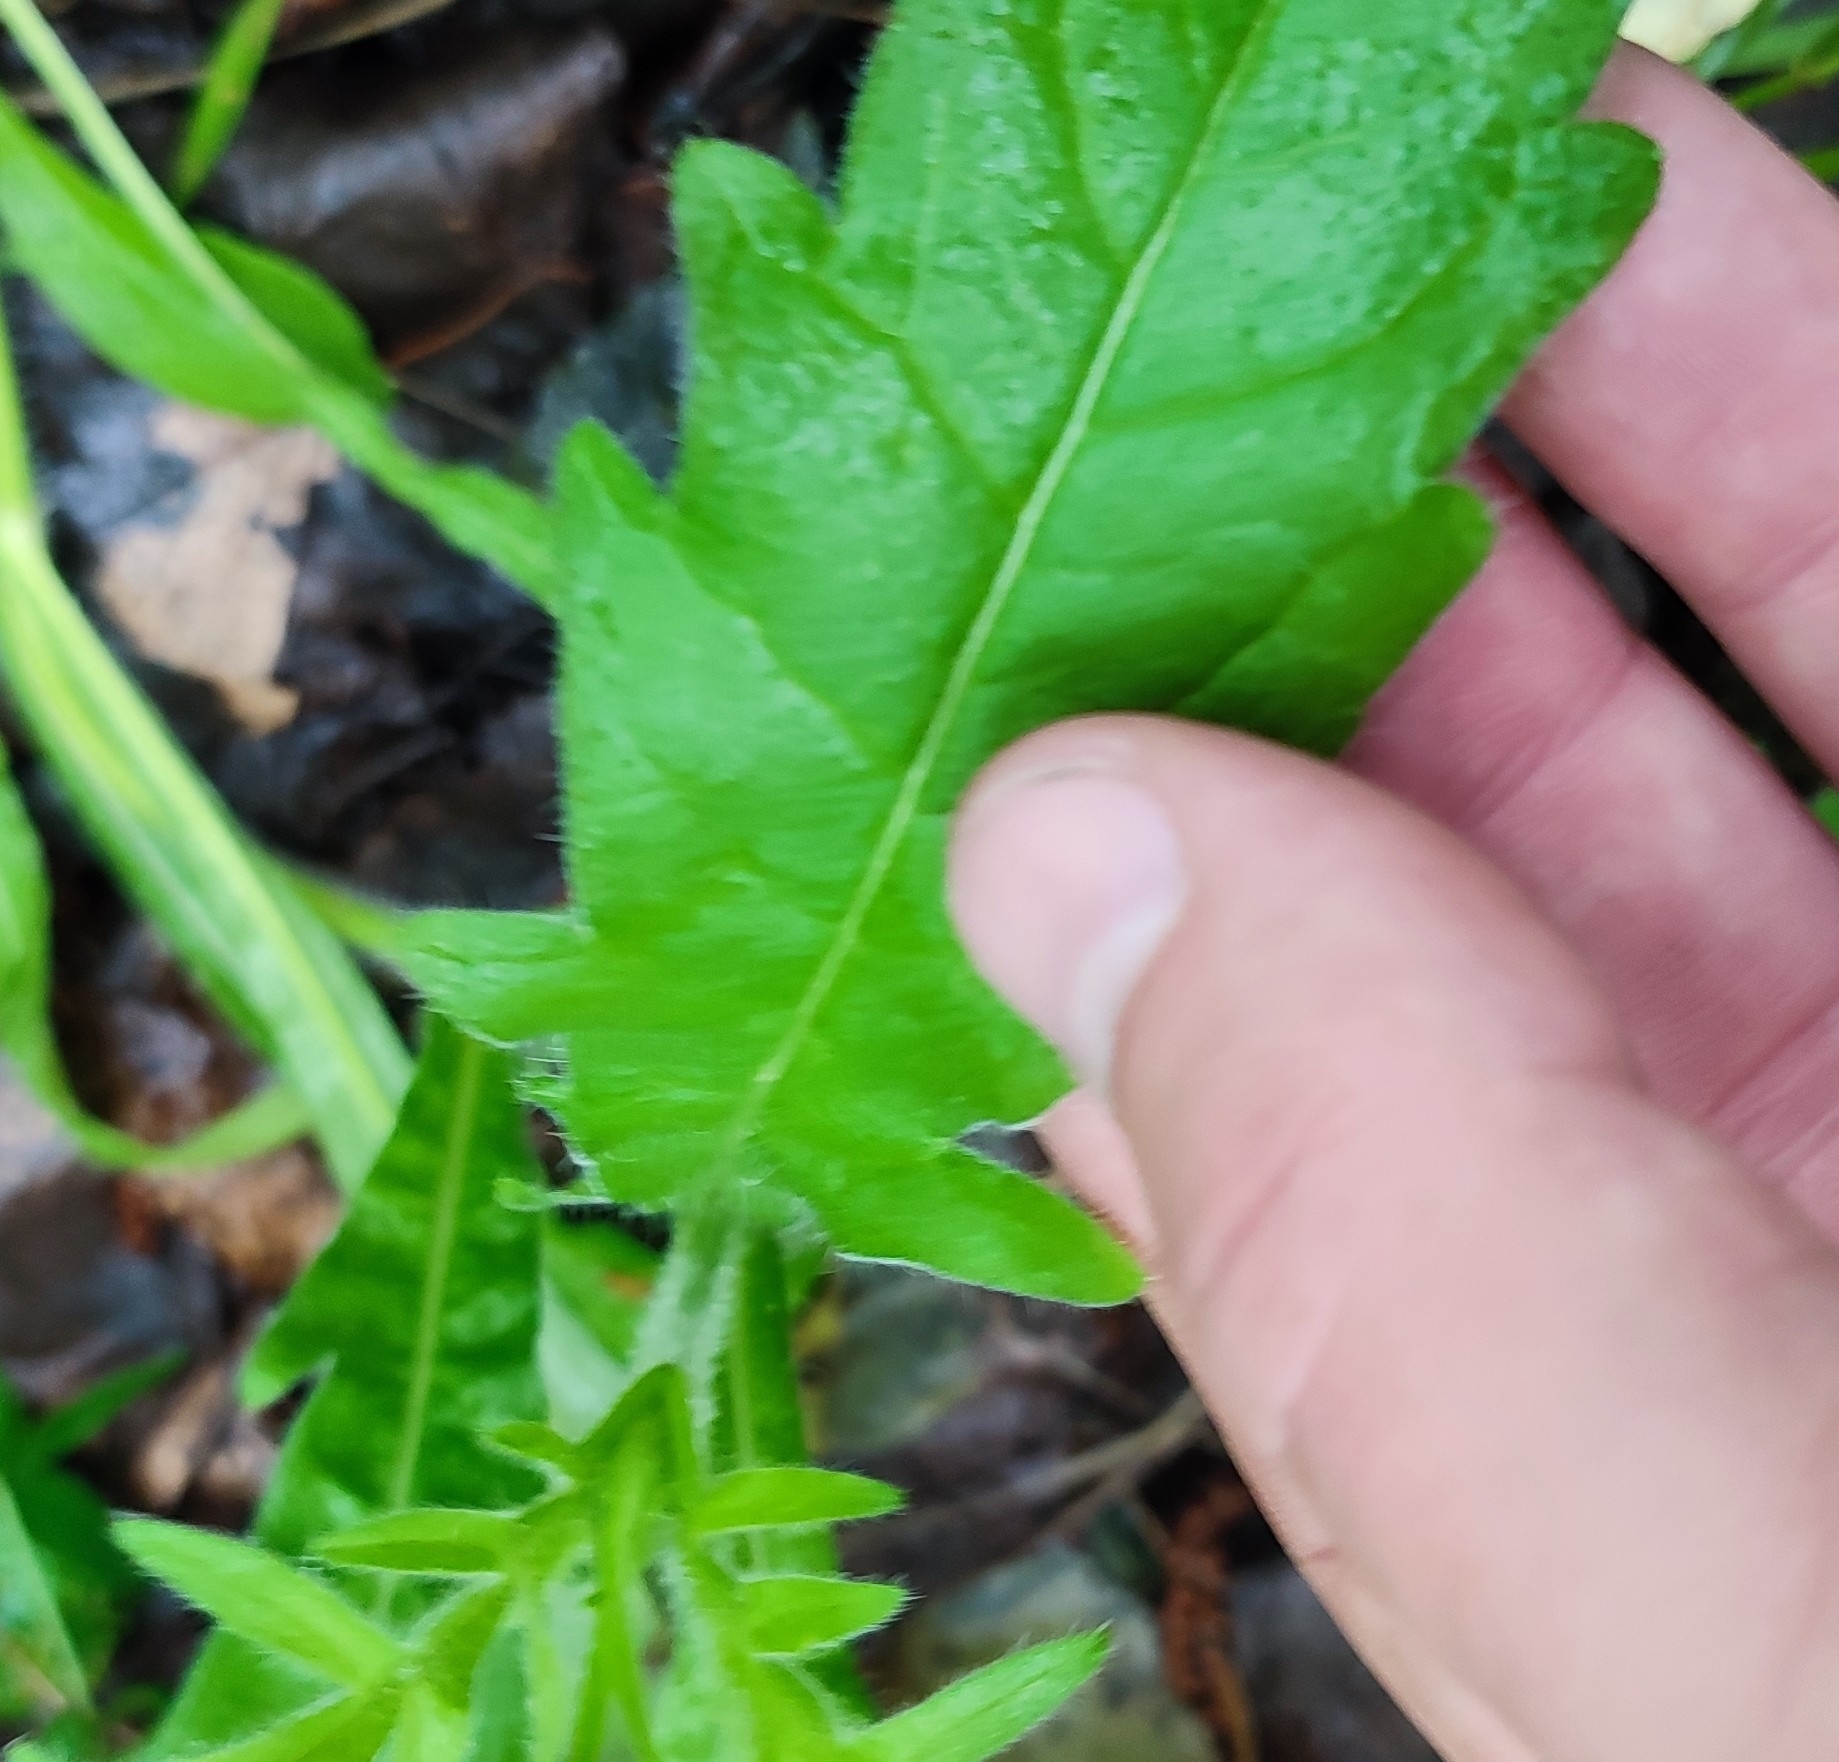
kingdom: Plantae
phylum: Tracheophyta
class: Magnoliopsida
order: Dipsacales
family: Caprifoliaceae
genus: Knautia
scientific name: Knautia arvensis
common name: Field scabiosa
